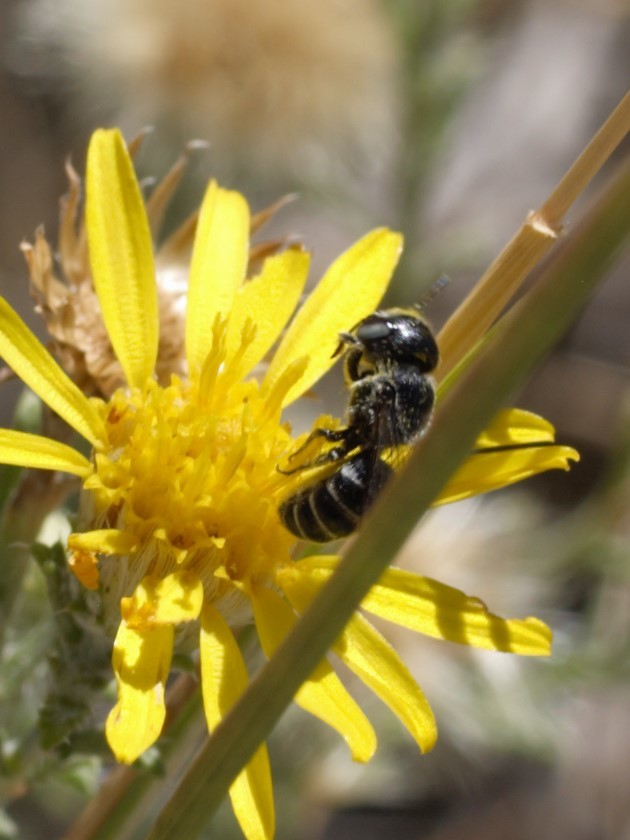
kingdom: Animalia
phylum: Arthropoda
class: Insecta
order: Hymenoptera
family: Megachilidae
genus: Ashmeadiella
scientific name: Ashmeadiella
